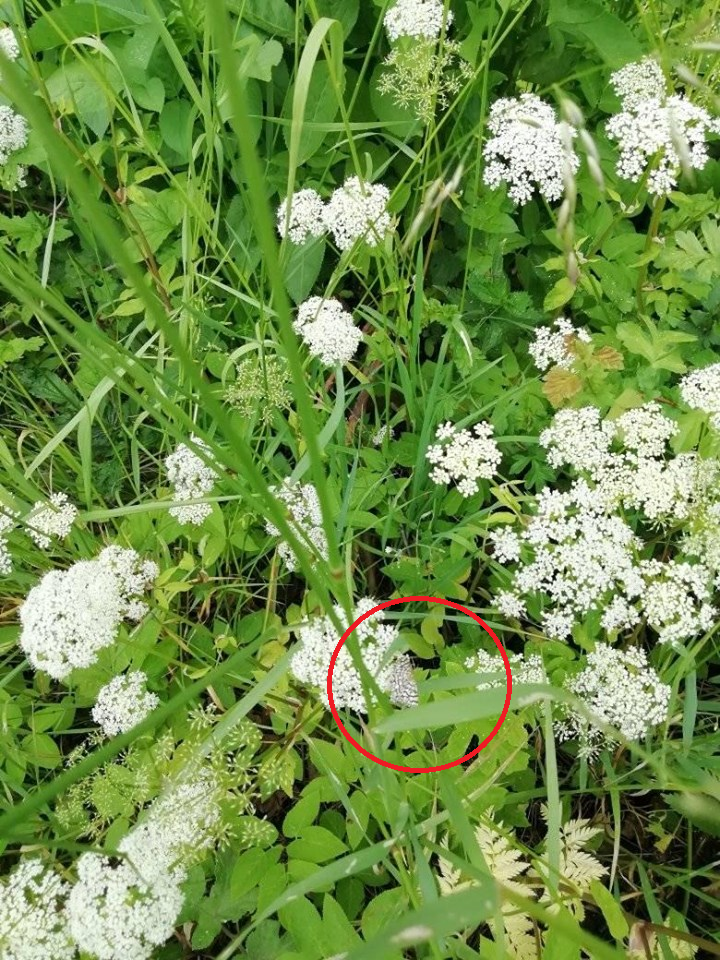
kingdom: Animalia
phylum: Arthropoda
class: Insecta
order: Lepidoptera
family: Geometridae
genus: Chiasmia
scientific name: Chiasmia clathrata
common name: Latticed heath
